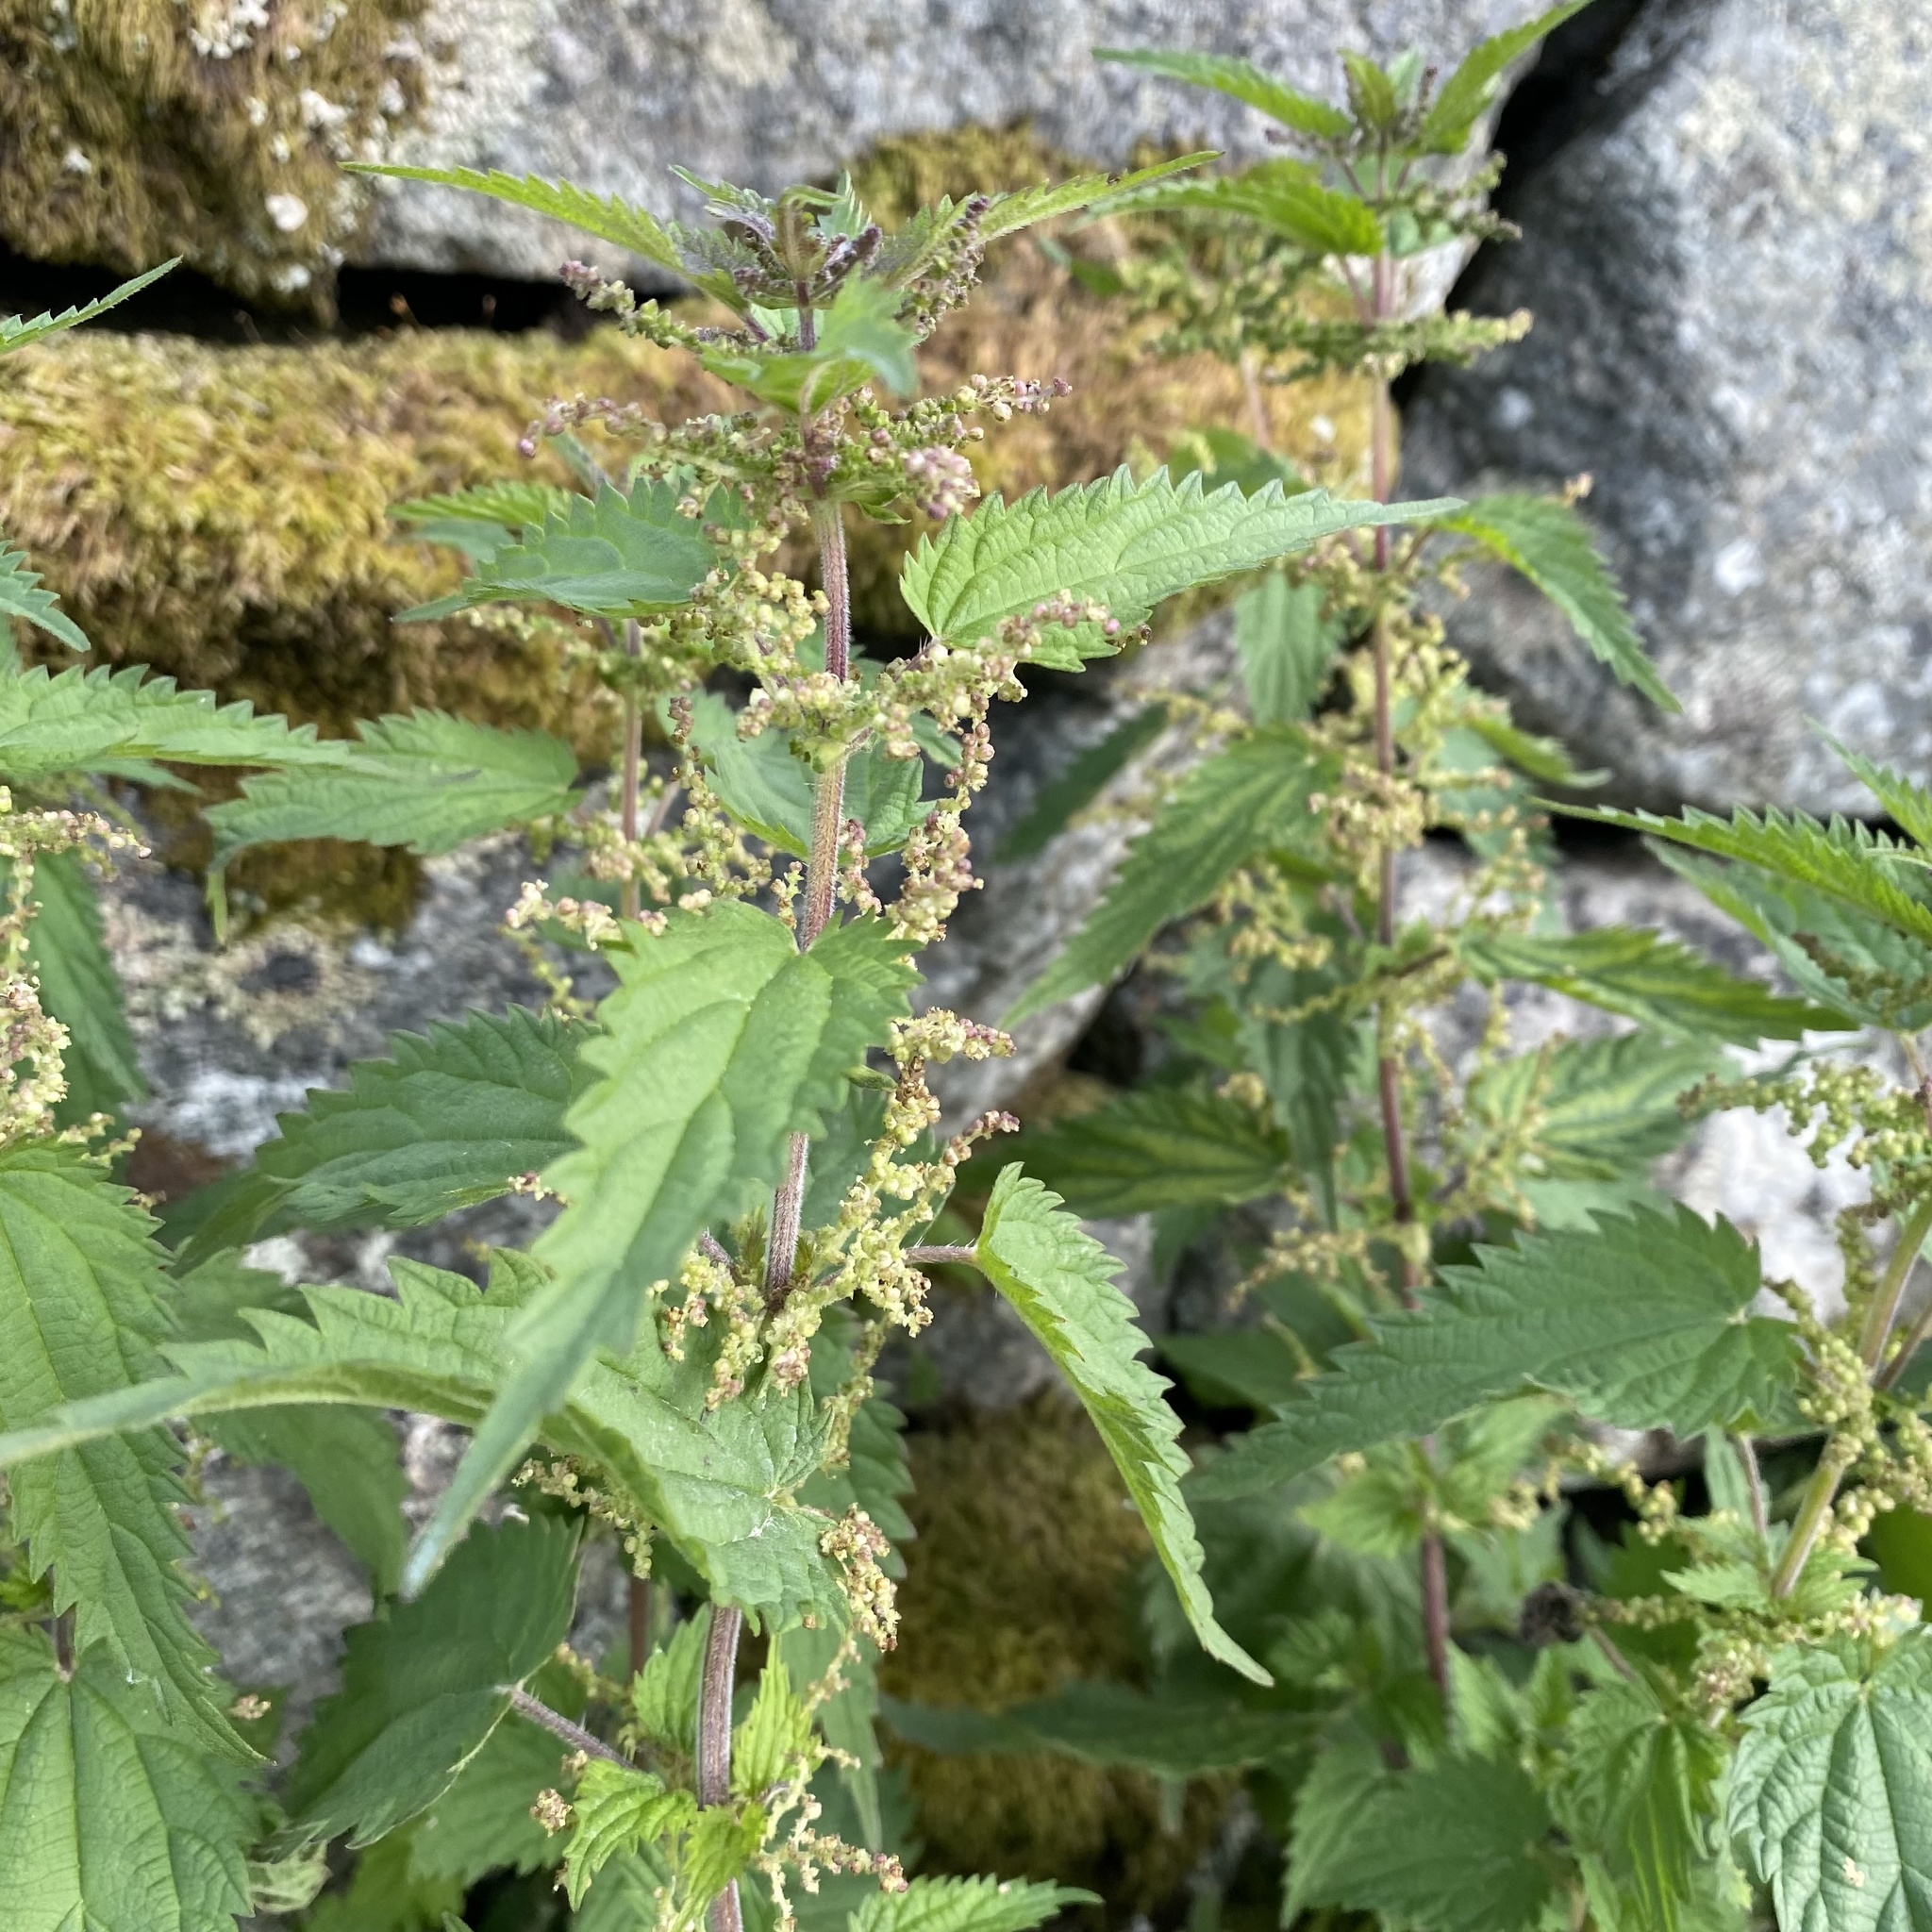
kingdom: Plantae
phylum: Tracheophyta
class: Magnoliopsida
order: Rosales
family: Urticaceae
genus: Urtica
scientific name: Urtica dioica
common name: Common nettle
